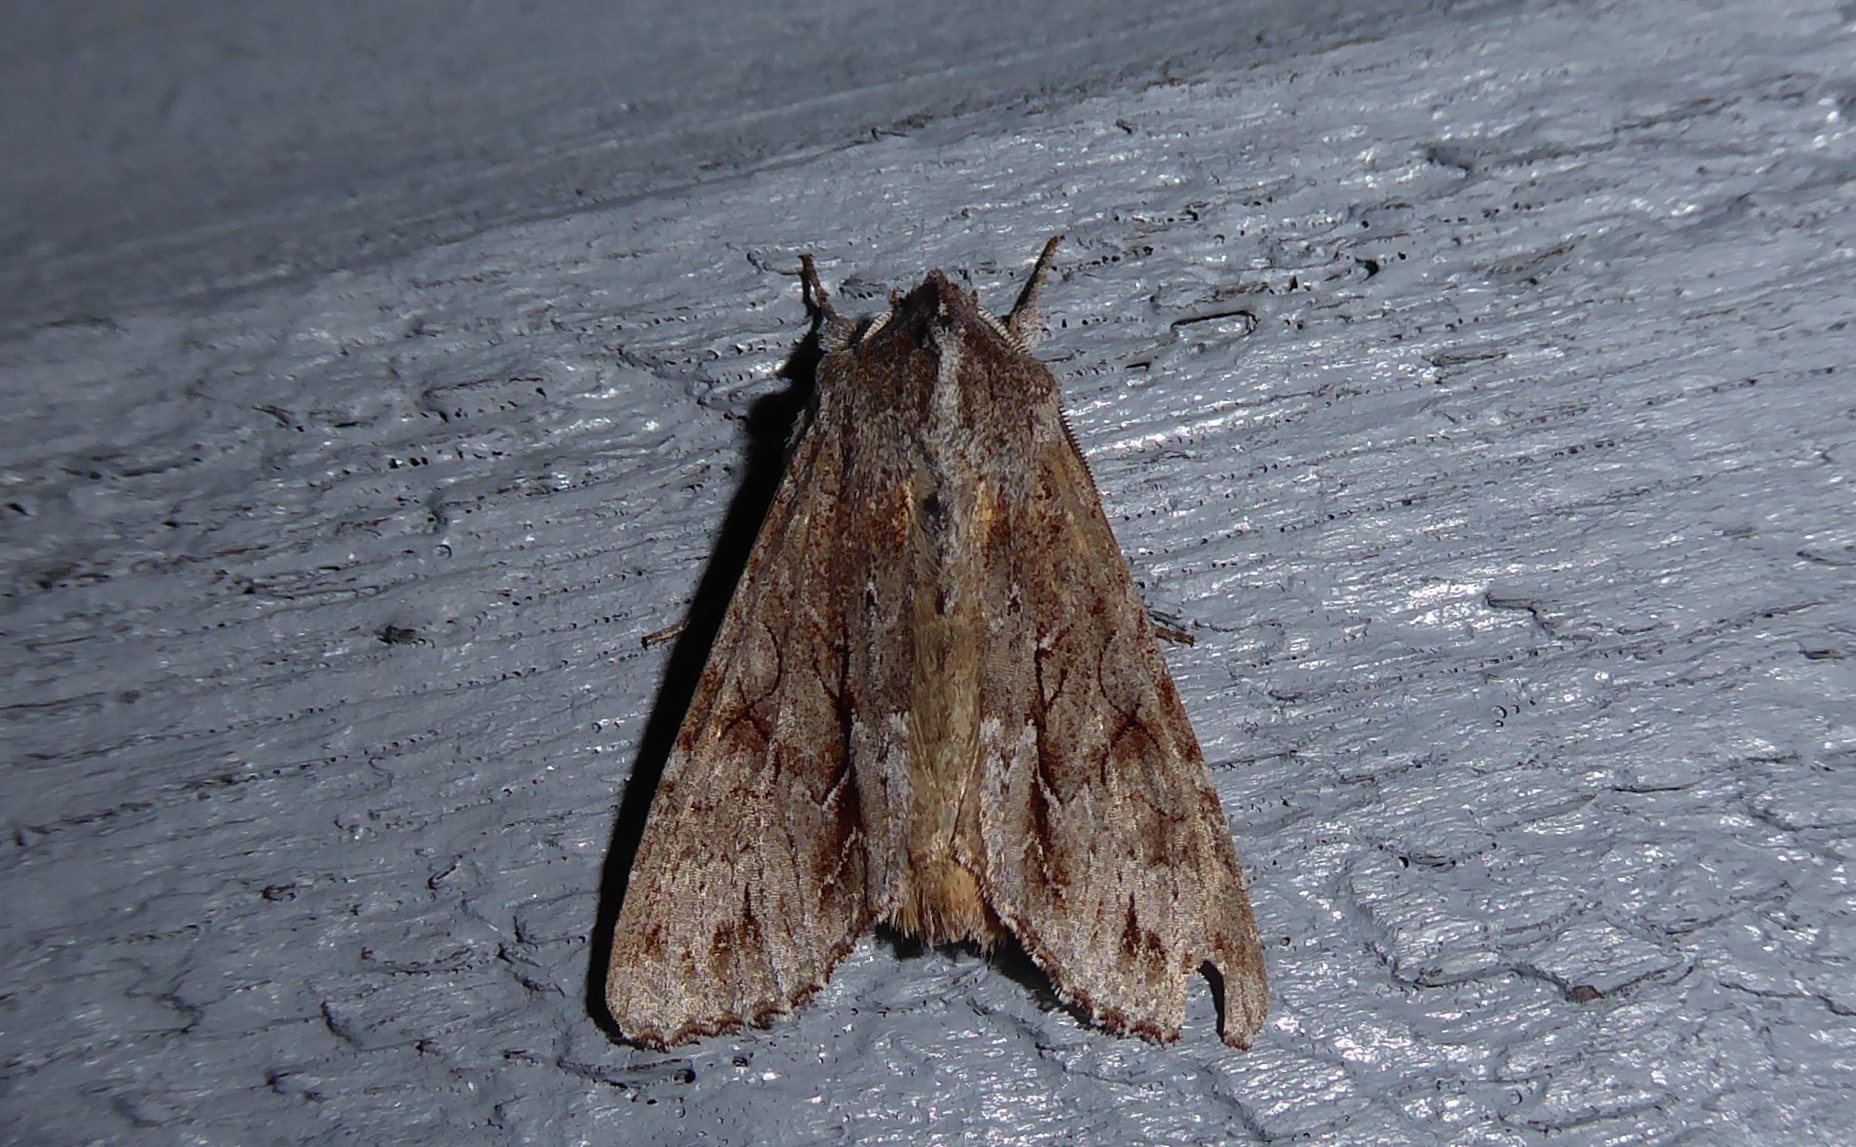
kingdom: Animalia
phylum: Arthropoda
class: Insecta
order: Lepidoptera
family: Noctuidae
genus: Ichneutica
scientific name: Ichneutica
